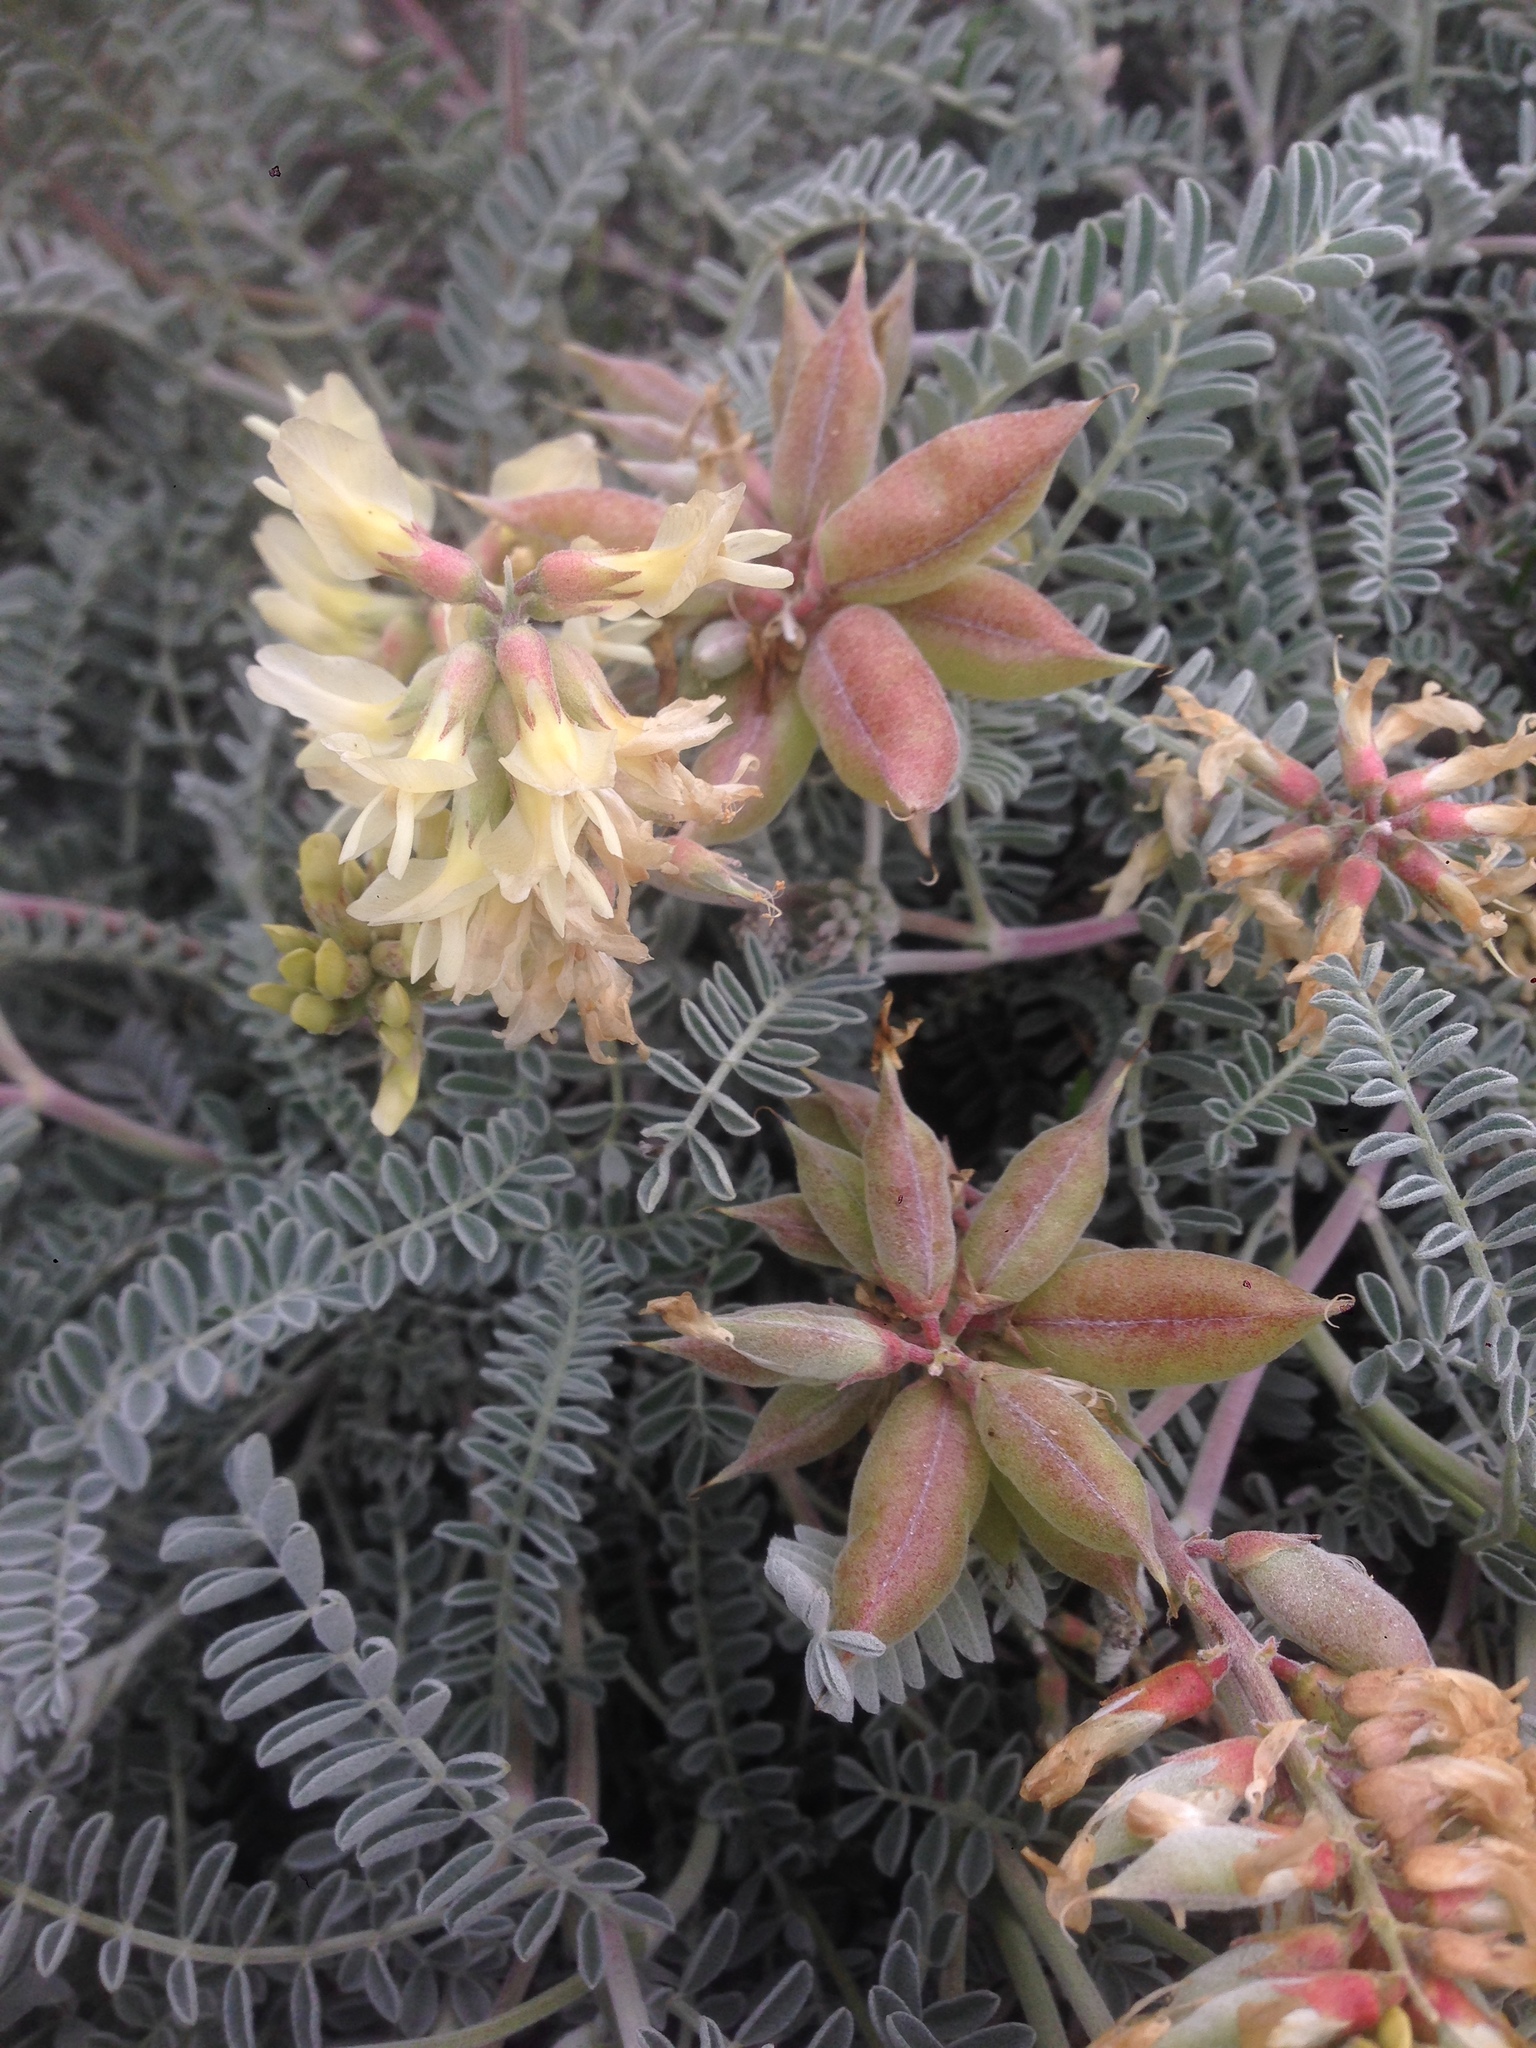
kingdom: Plantae
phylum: Tracheophyta
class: Magnoliopsida
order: Fabales
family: Fabaceae
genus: Astragalus
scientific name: Astragalus miguelensis
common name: San miguel milk-vetch
